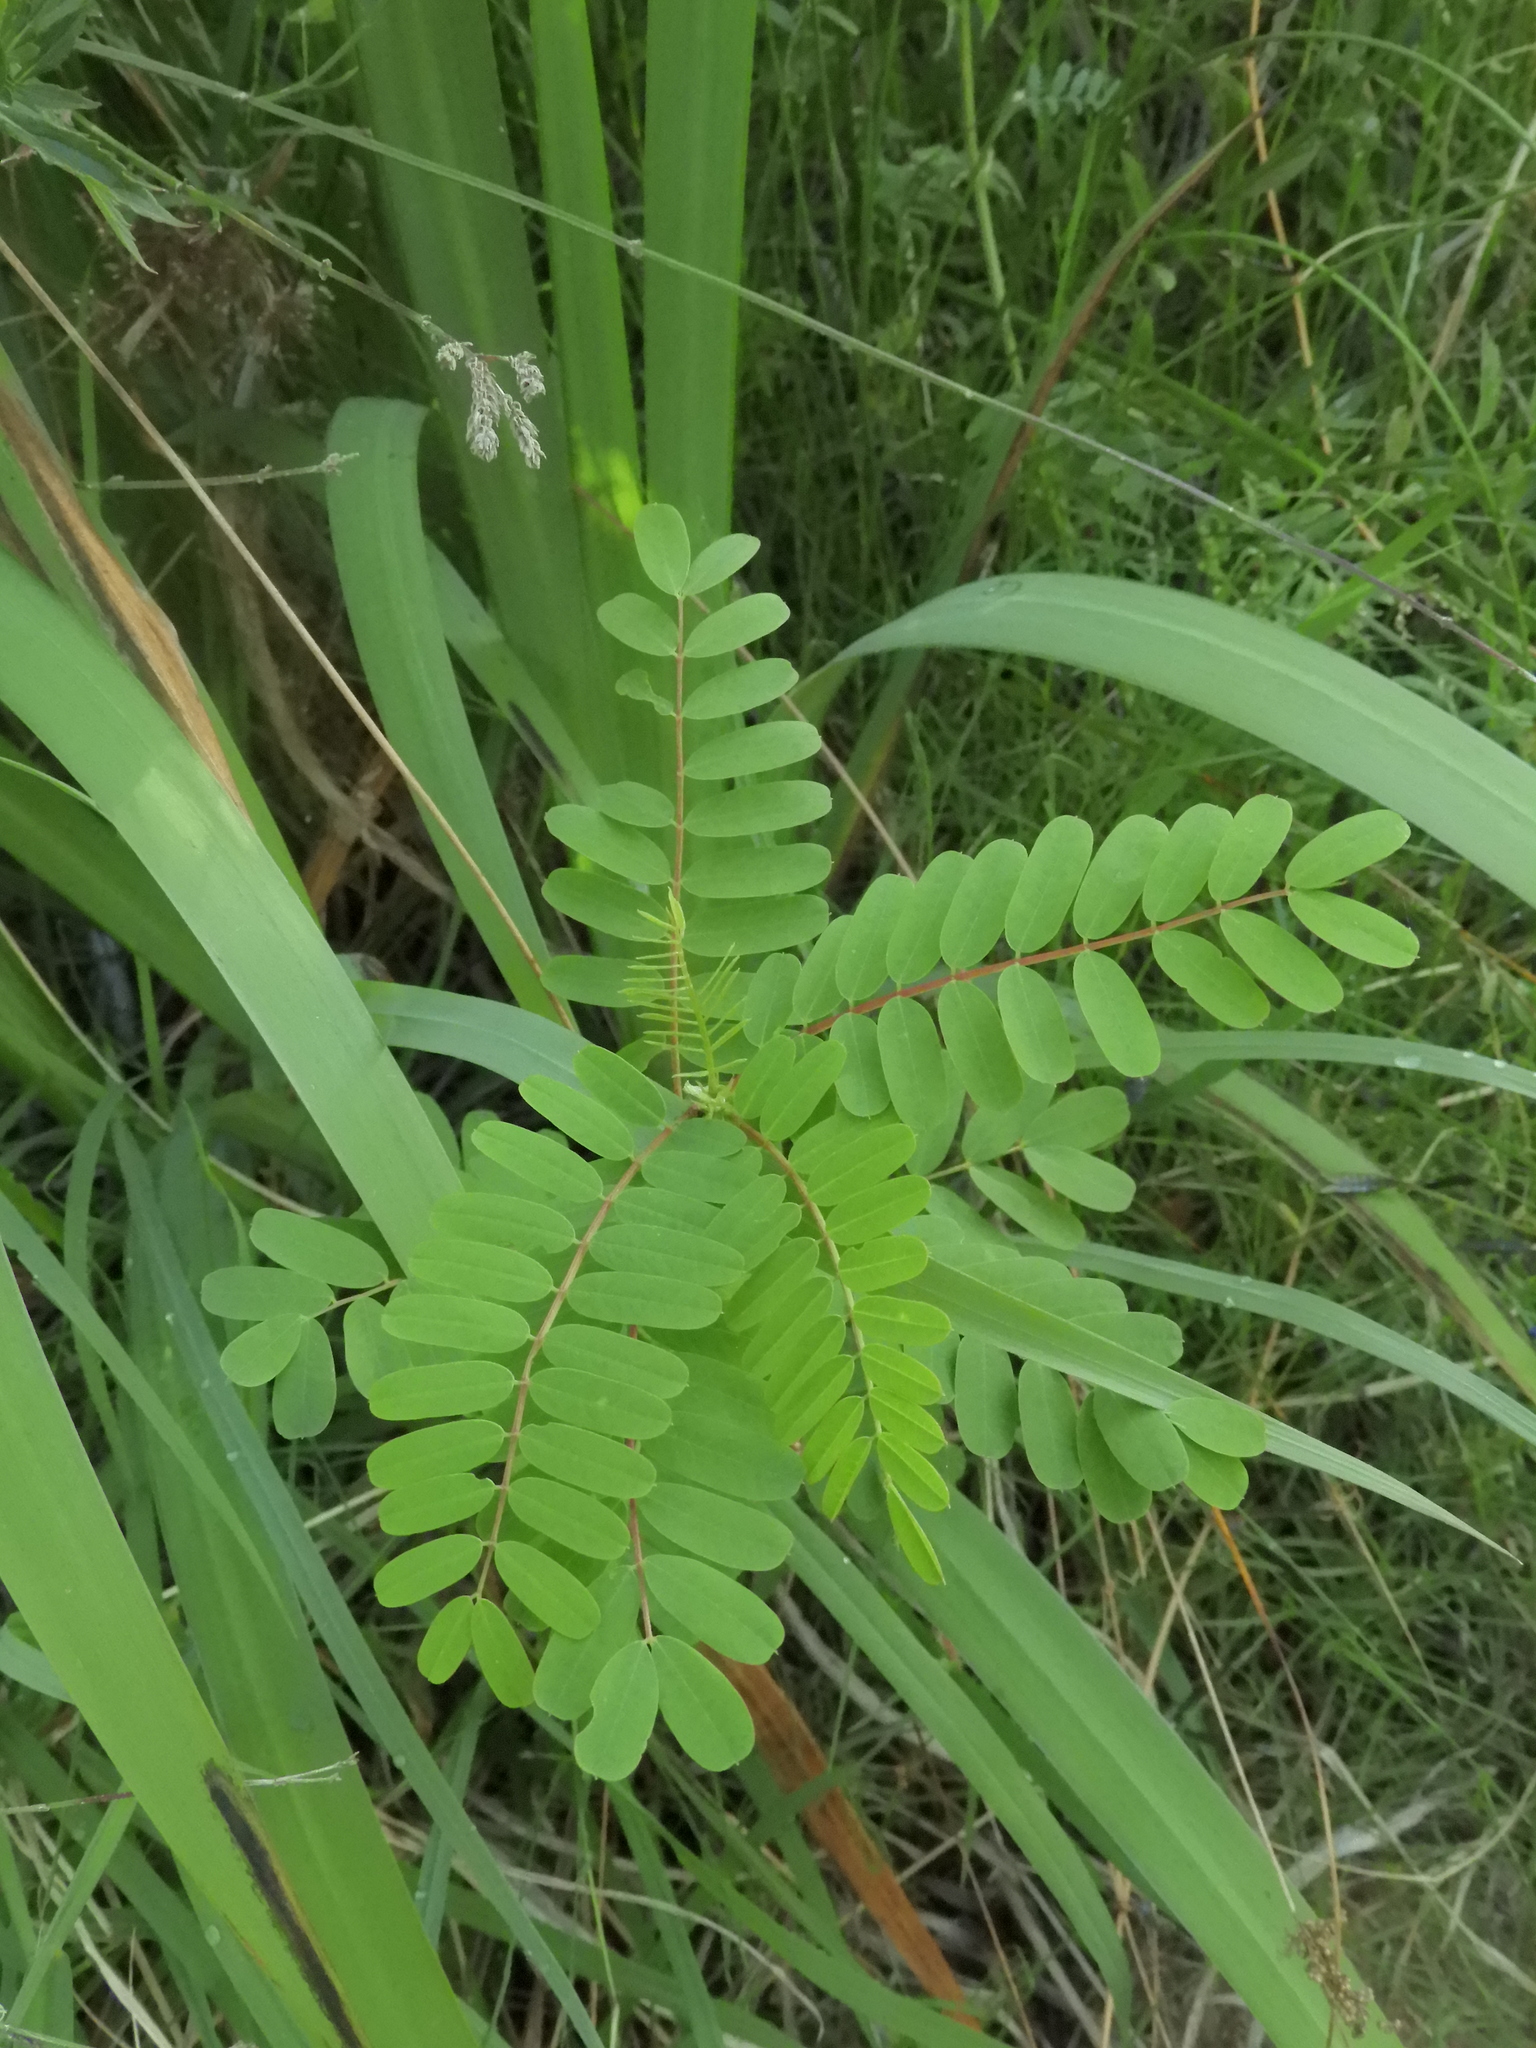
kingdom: Plantae
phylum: Tracheophyta
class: Magnoliopsida
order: Fabales
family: Fabaceae
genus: Sesbania
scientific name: Sesbania punicea
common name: Rattlebox
